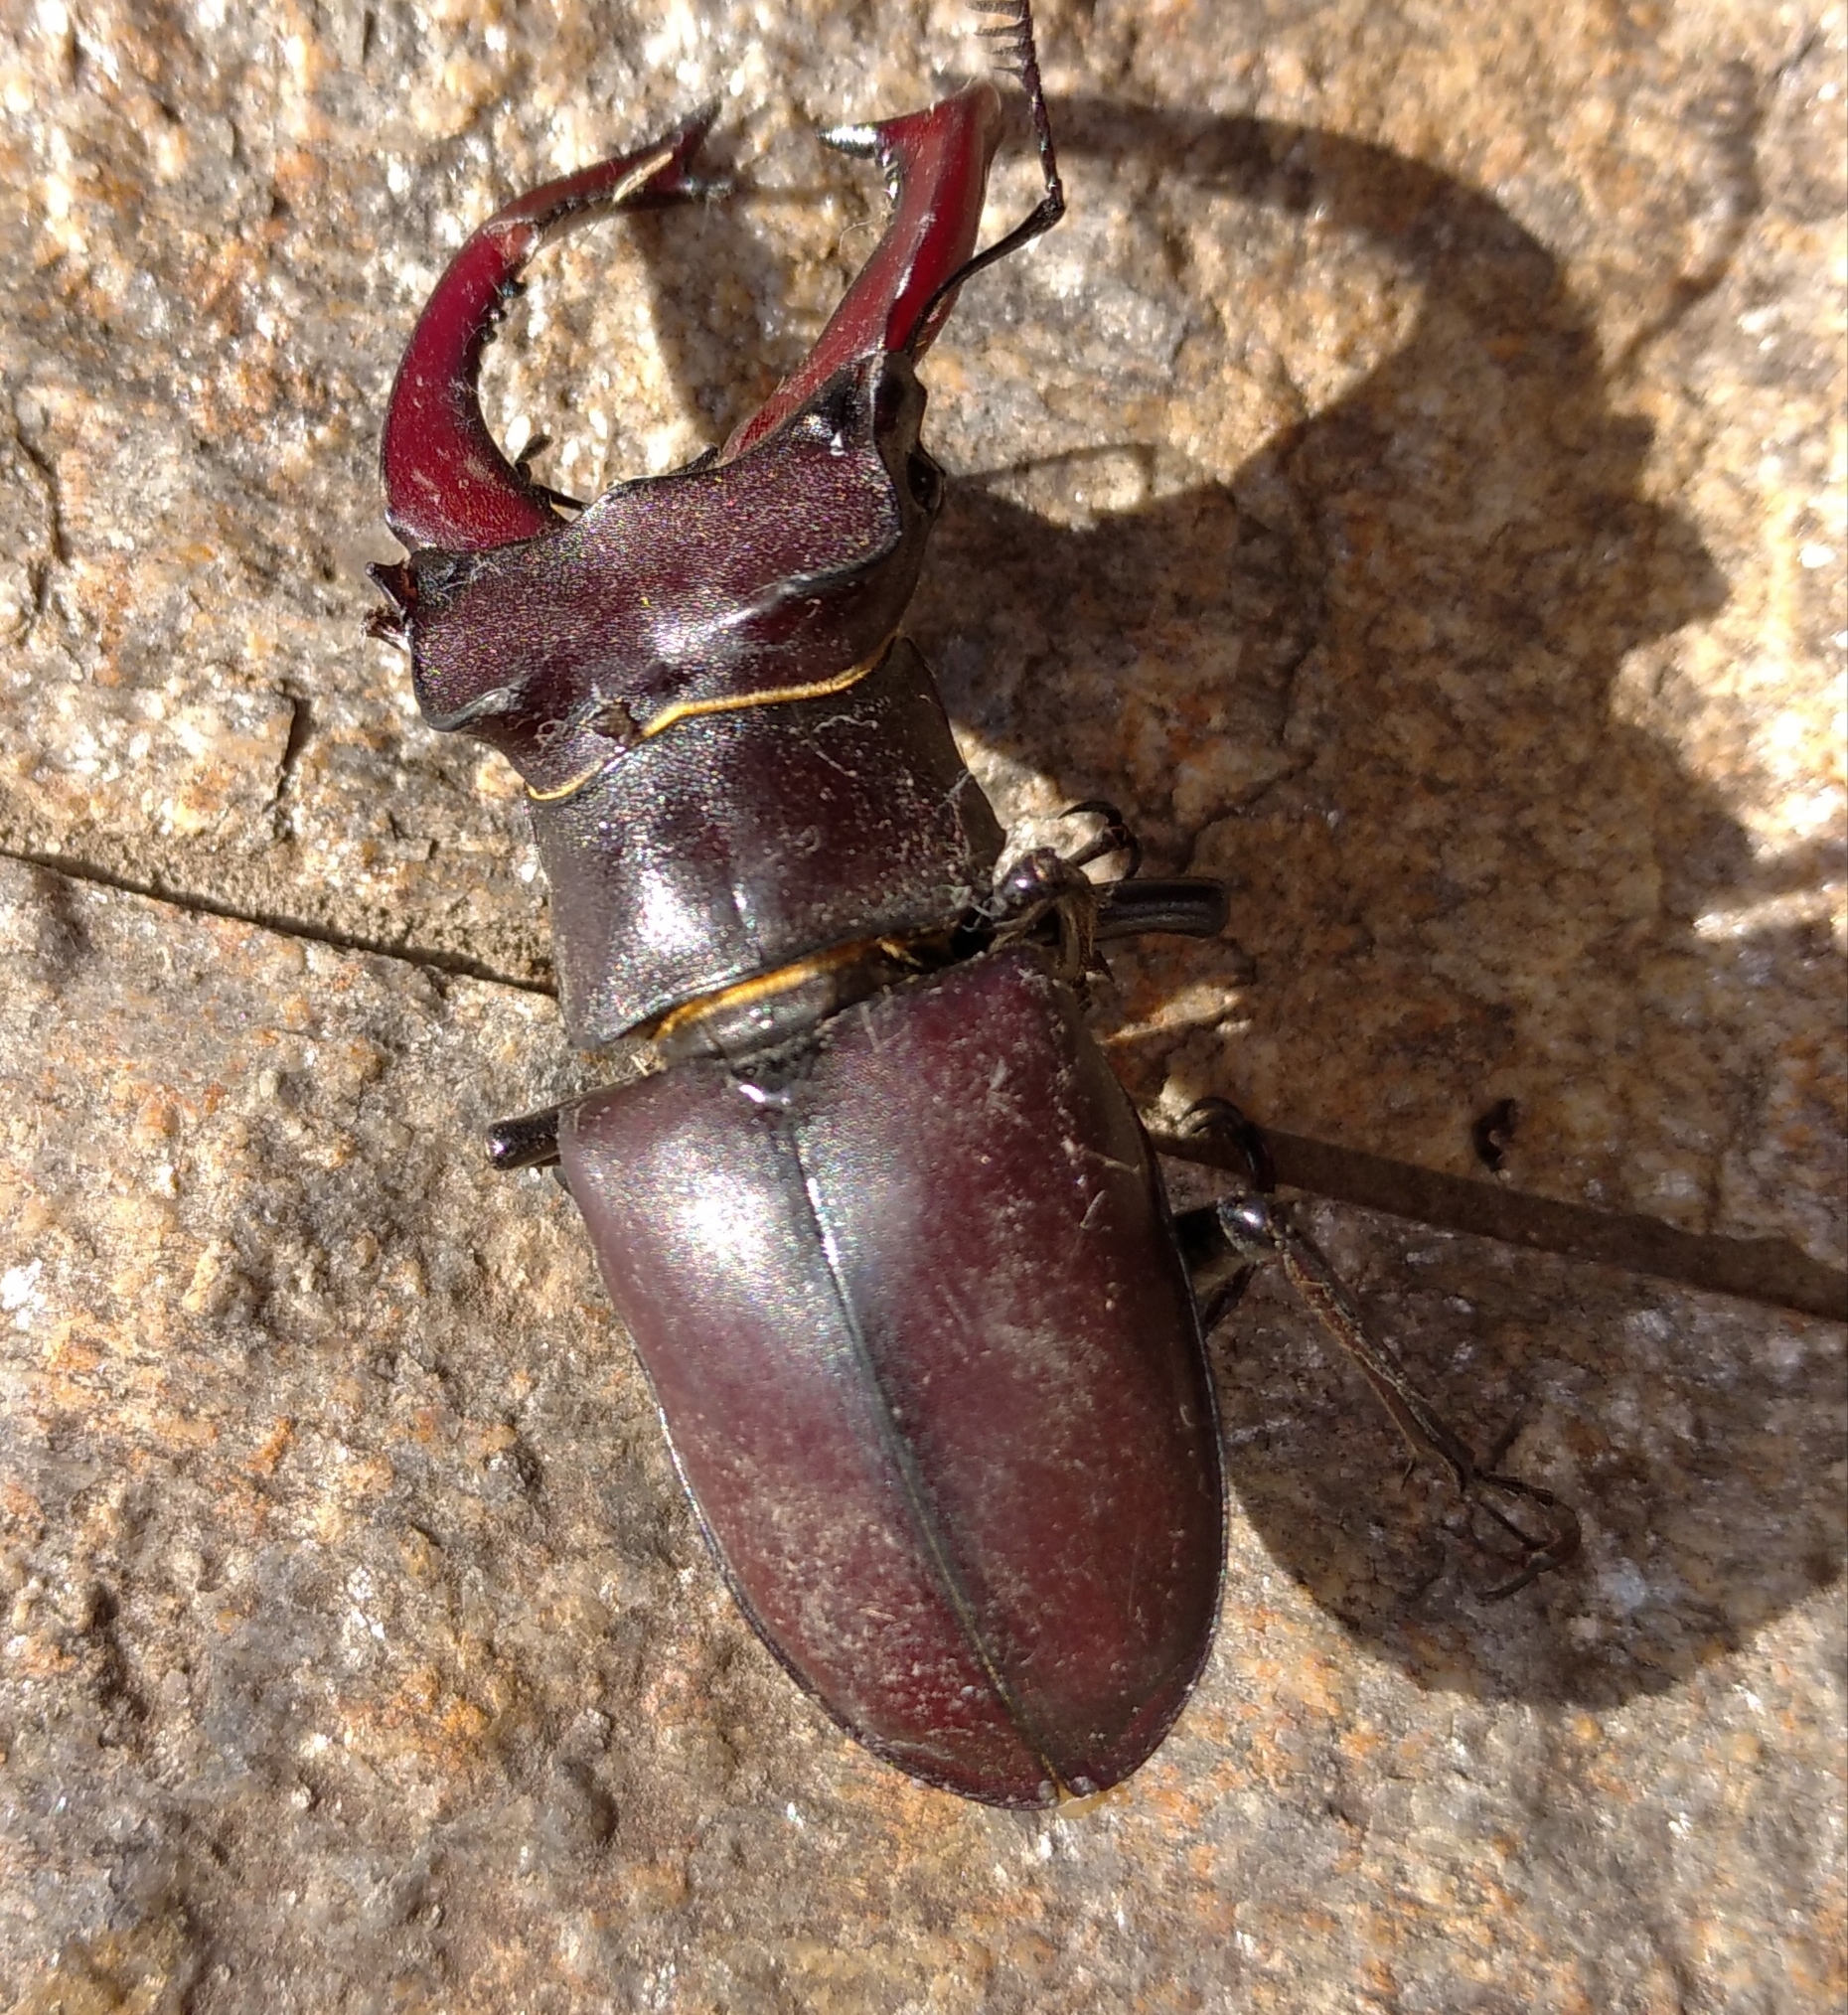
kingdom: Animalia
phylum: Arthropoda
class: Insecta
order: Coleoptera
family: Lucanidae
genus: Lucanus
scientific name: Lucanus cervus
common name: Stag beetle
